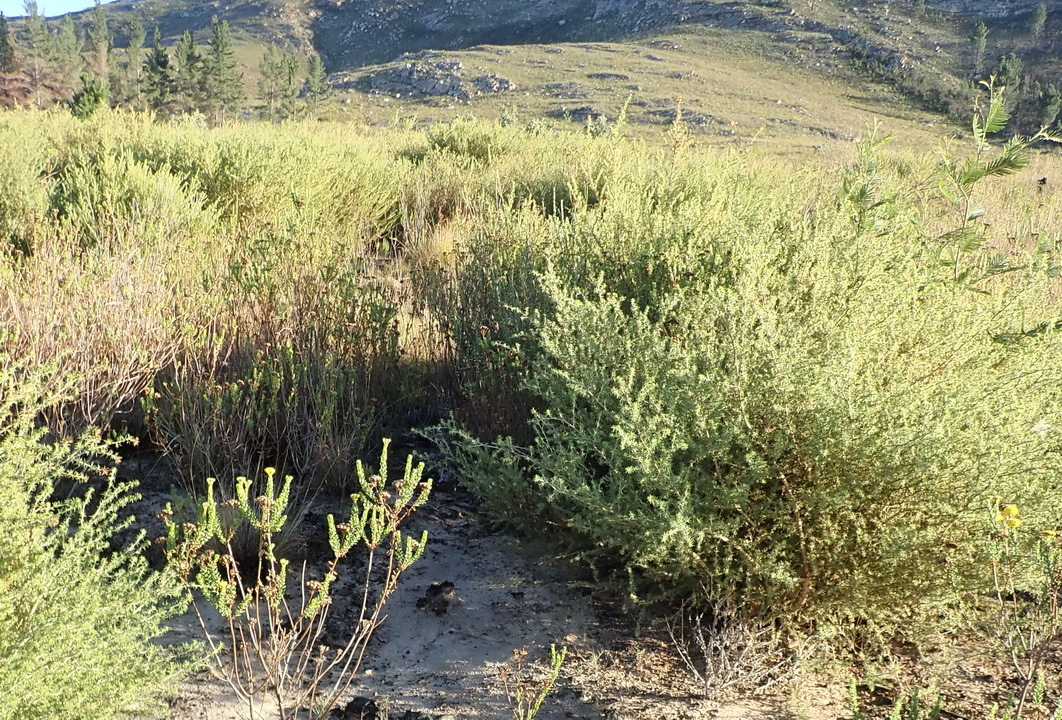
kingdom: Plantae
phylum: Tracheophyta
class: Magnoliopsida
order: Fabales
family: Fabaceae
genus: Aspalathus
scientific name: Aspalathus hirta
